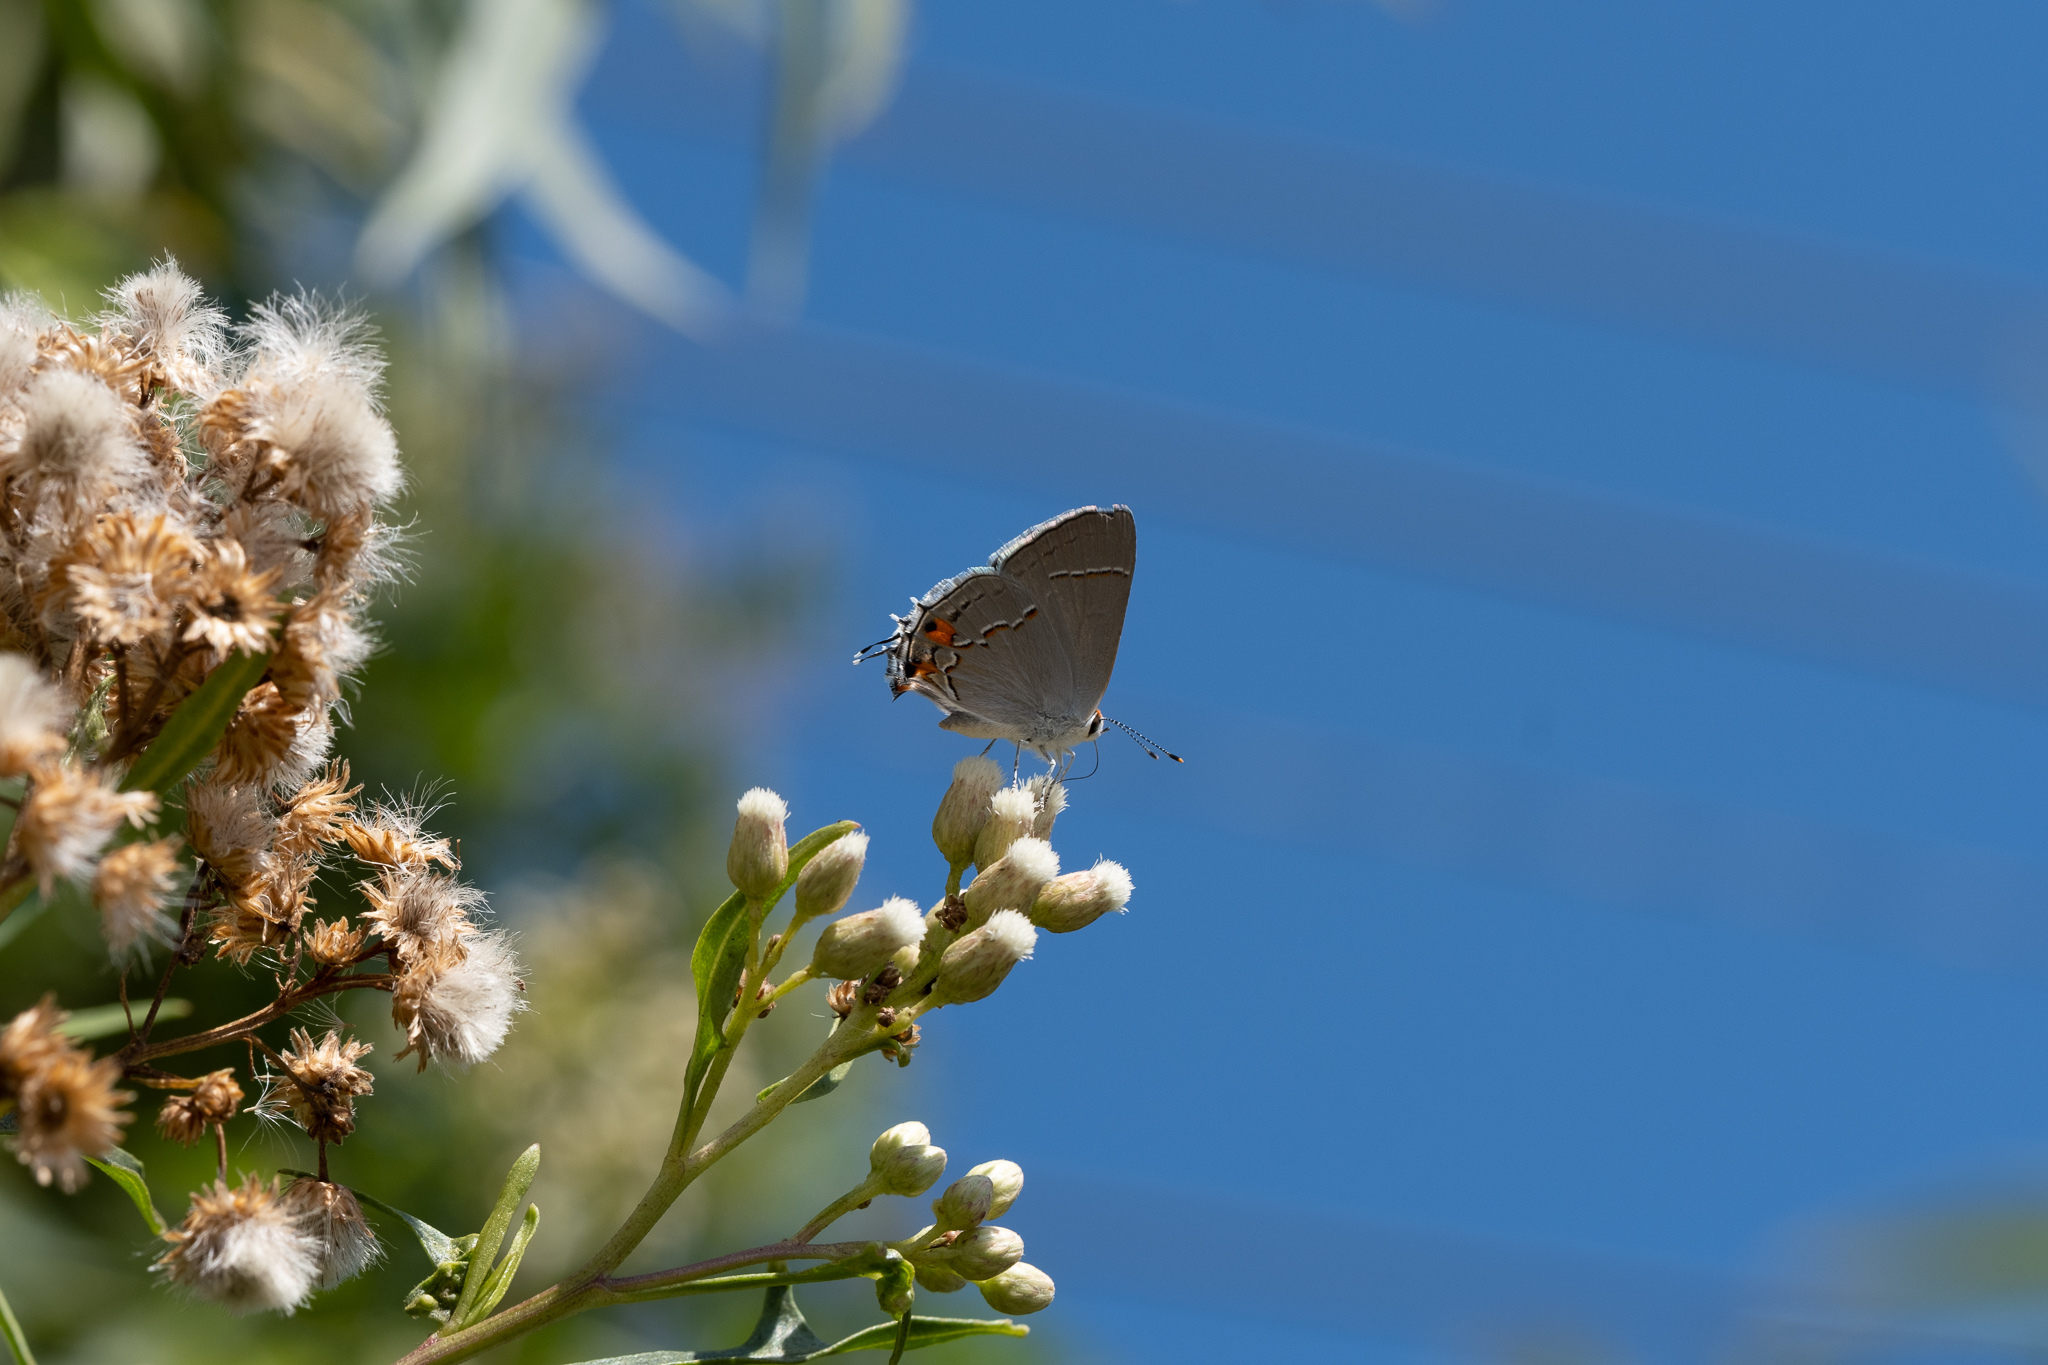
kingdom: Animalia
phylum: Arthropoda
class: Insecta
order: Lepidoptera
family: Lycaenidae
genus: Strymon
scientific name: Strymon melinus
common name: Gray hairstreak
